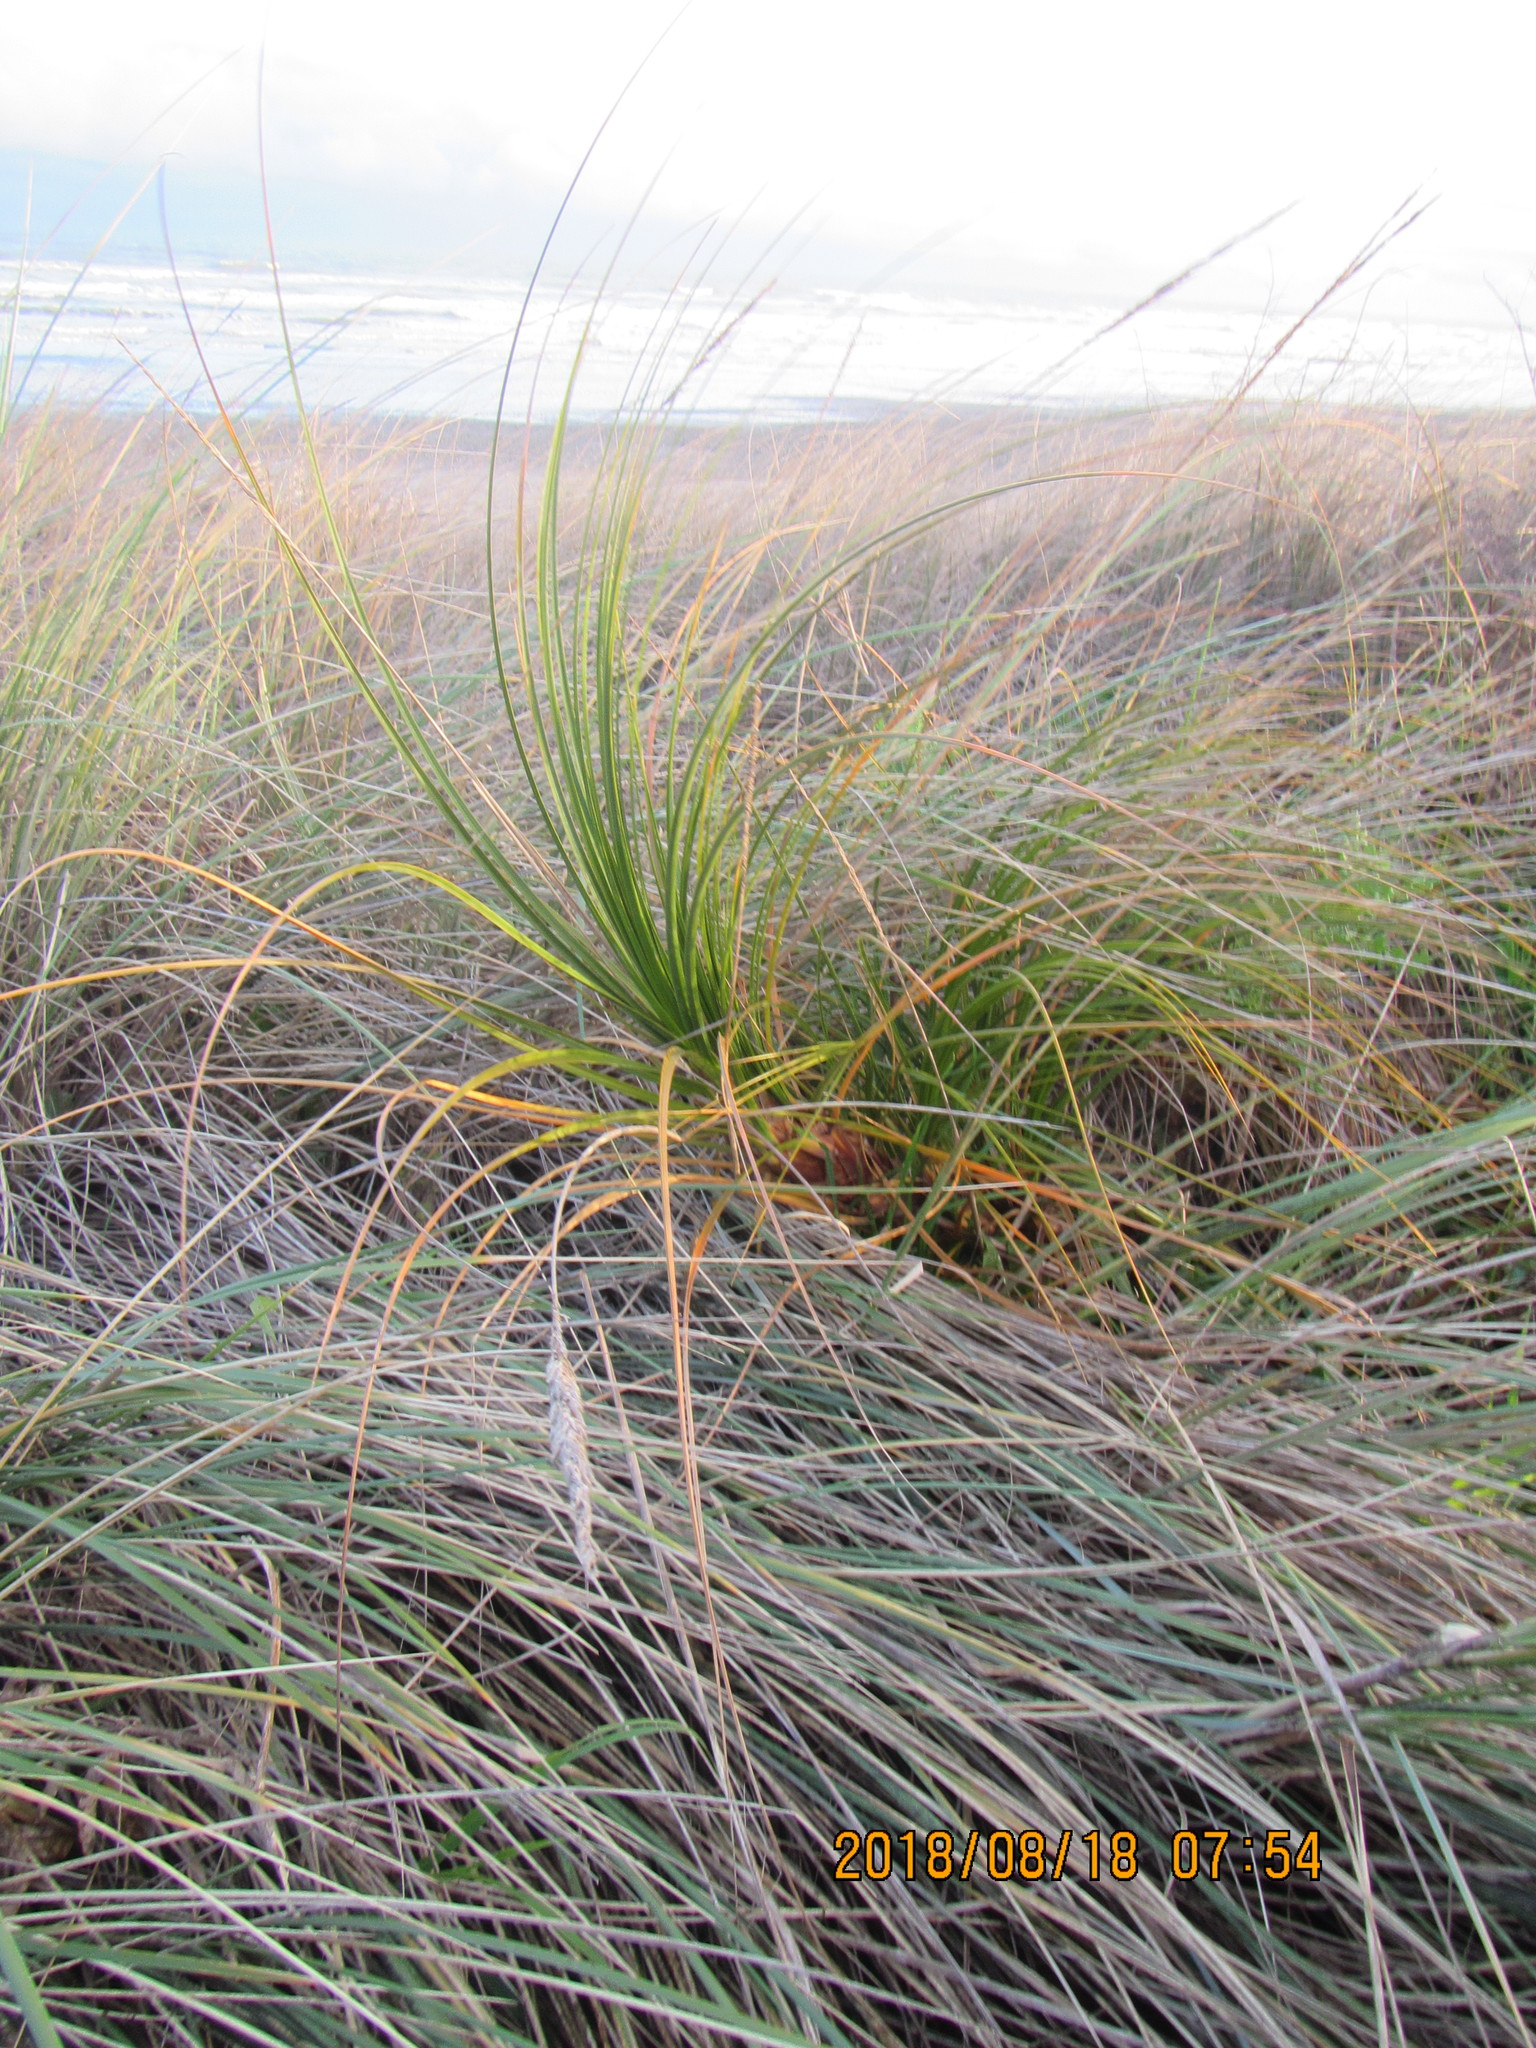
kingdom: Plantae
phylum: Tracheophyta
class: Liliopsida
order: Poales
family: Cyperaceae
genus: Ficinia
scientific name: Ficinia spiralis
